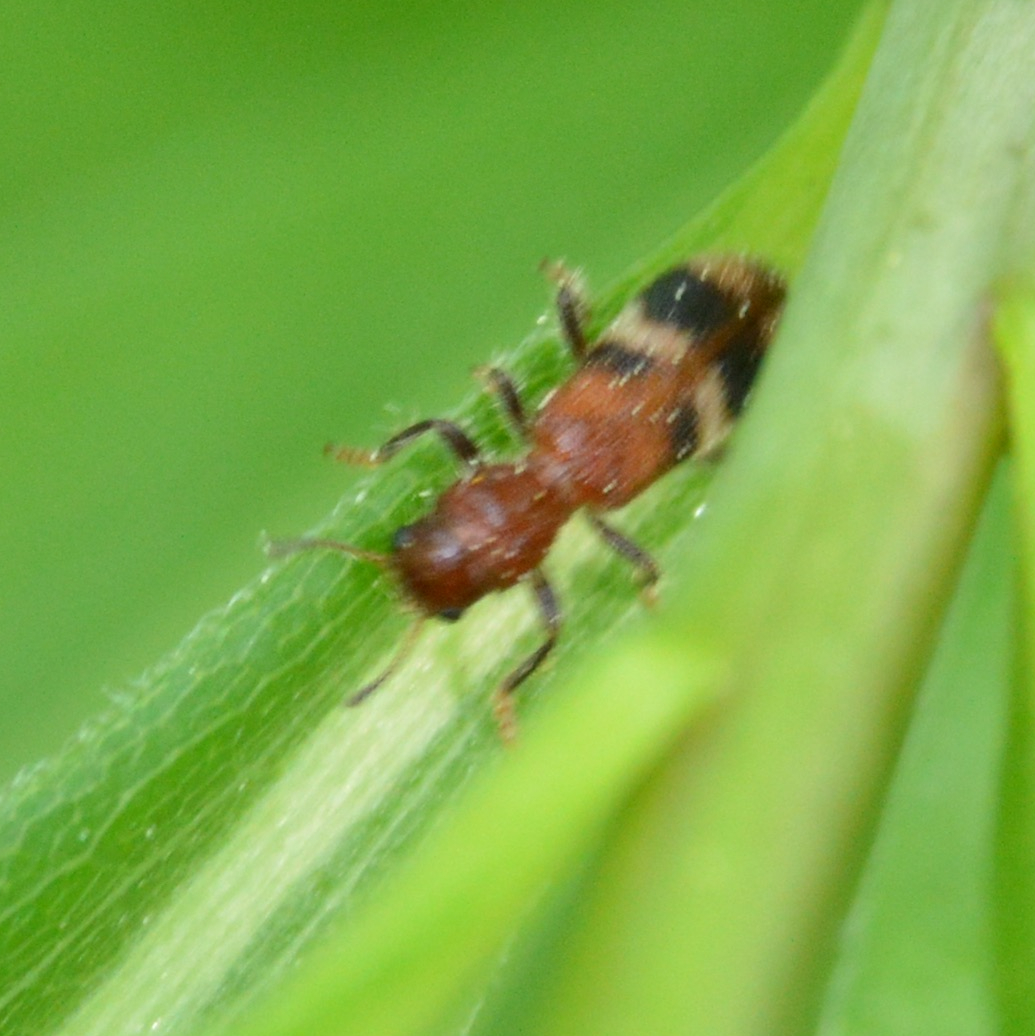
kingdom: Animalia
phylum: Arthropoda
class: Insecta
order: Coleoptera
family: Cleridae
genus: Enoclerus
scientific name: Enoclerus rosmarus
